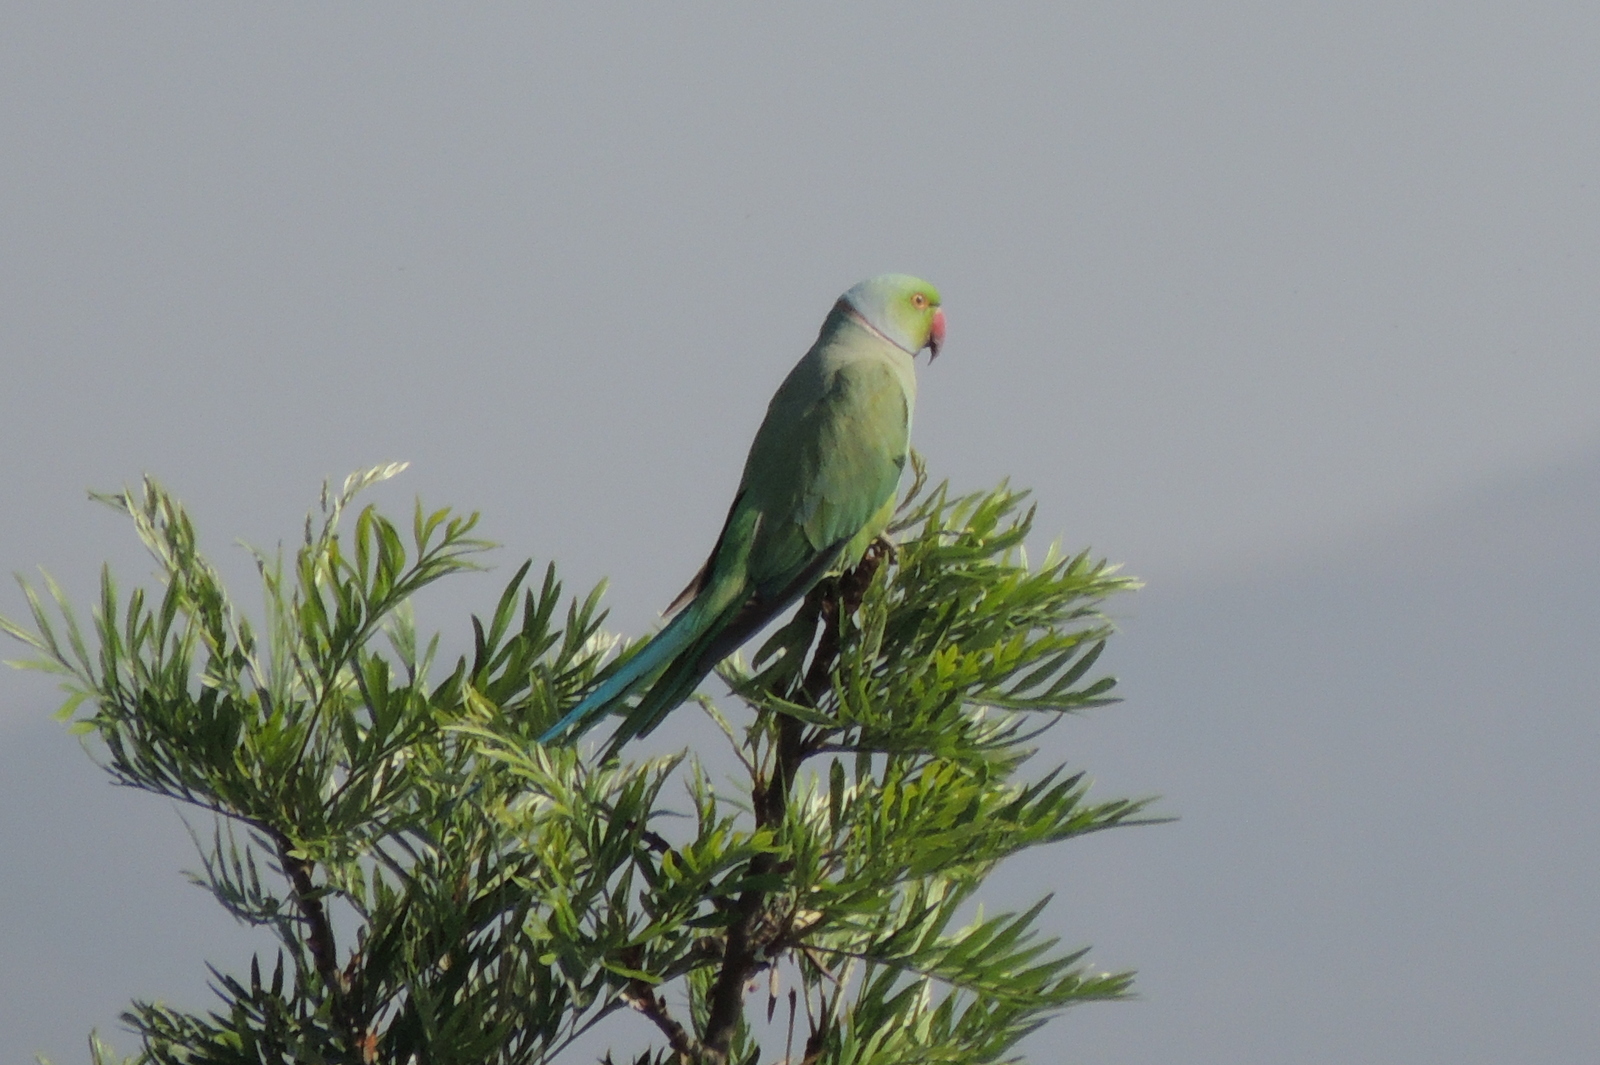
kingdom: Animalia
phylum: Chordata
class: Aves
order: Psittaciformes
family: Psittacidae
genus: Psittacula
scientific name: Psittacula krameri
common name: Rose-ringed parakeet
